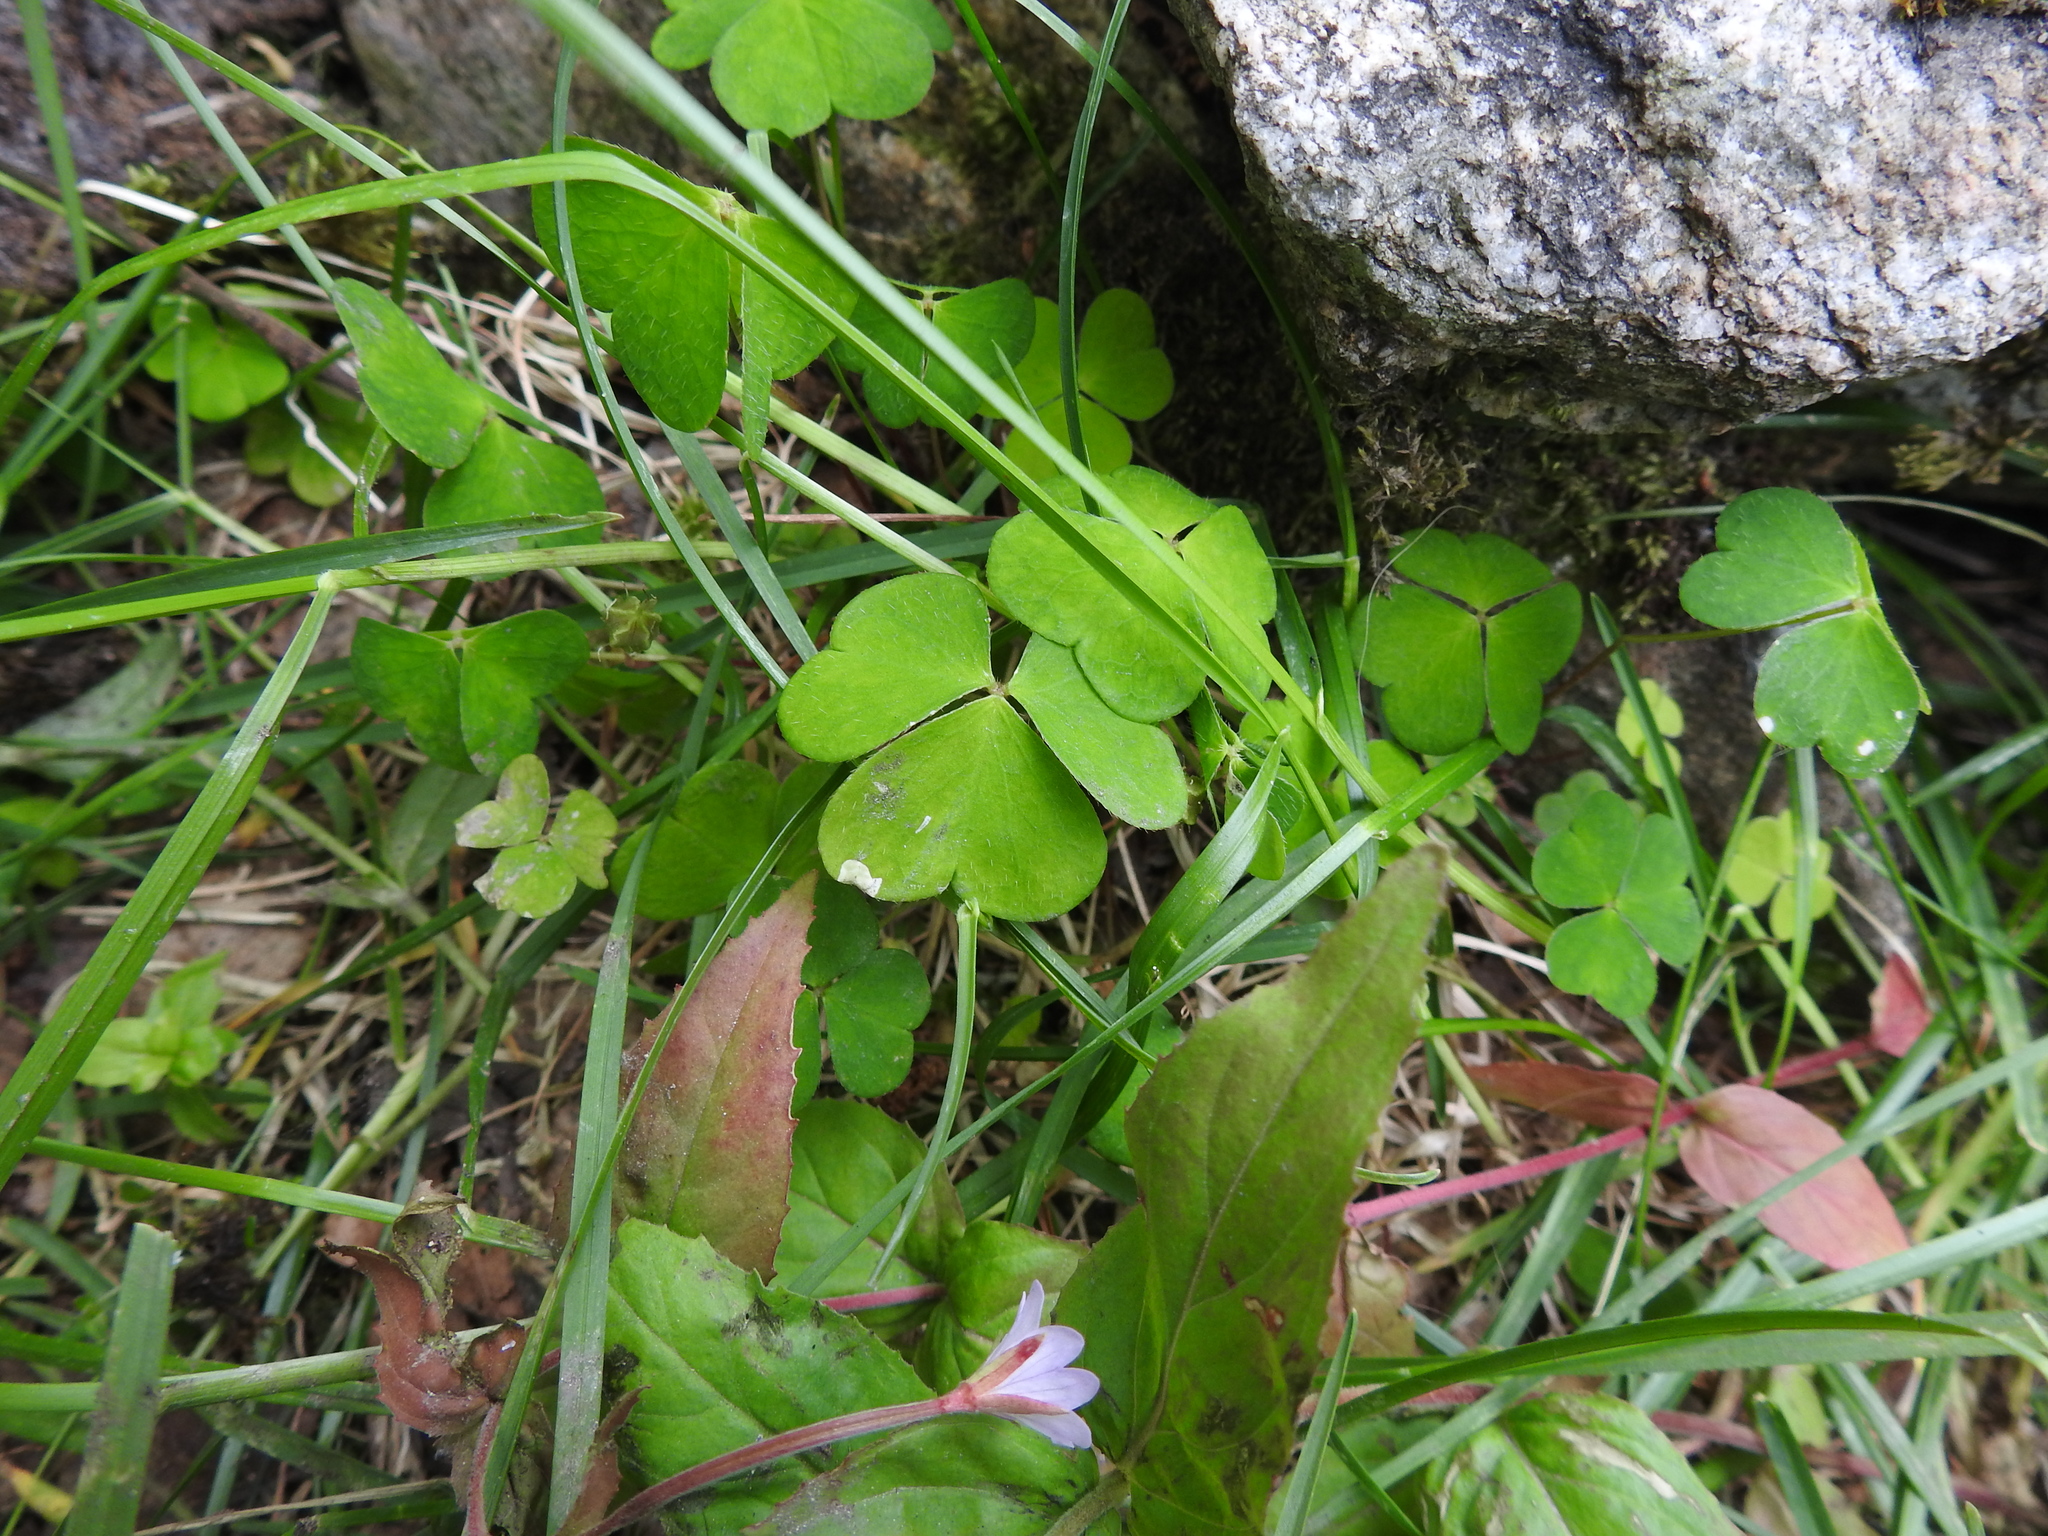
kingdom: Plantae
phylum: Tracheophyta
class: Magnoliopsida
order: Oxalidales
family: Oxalidaceae
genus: Oxalis
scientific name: Oxalis acetosella
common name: Wood-sorrel
